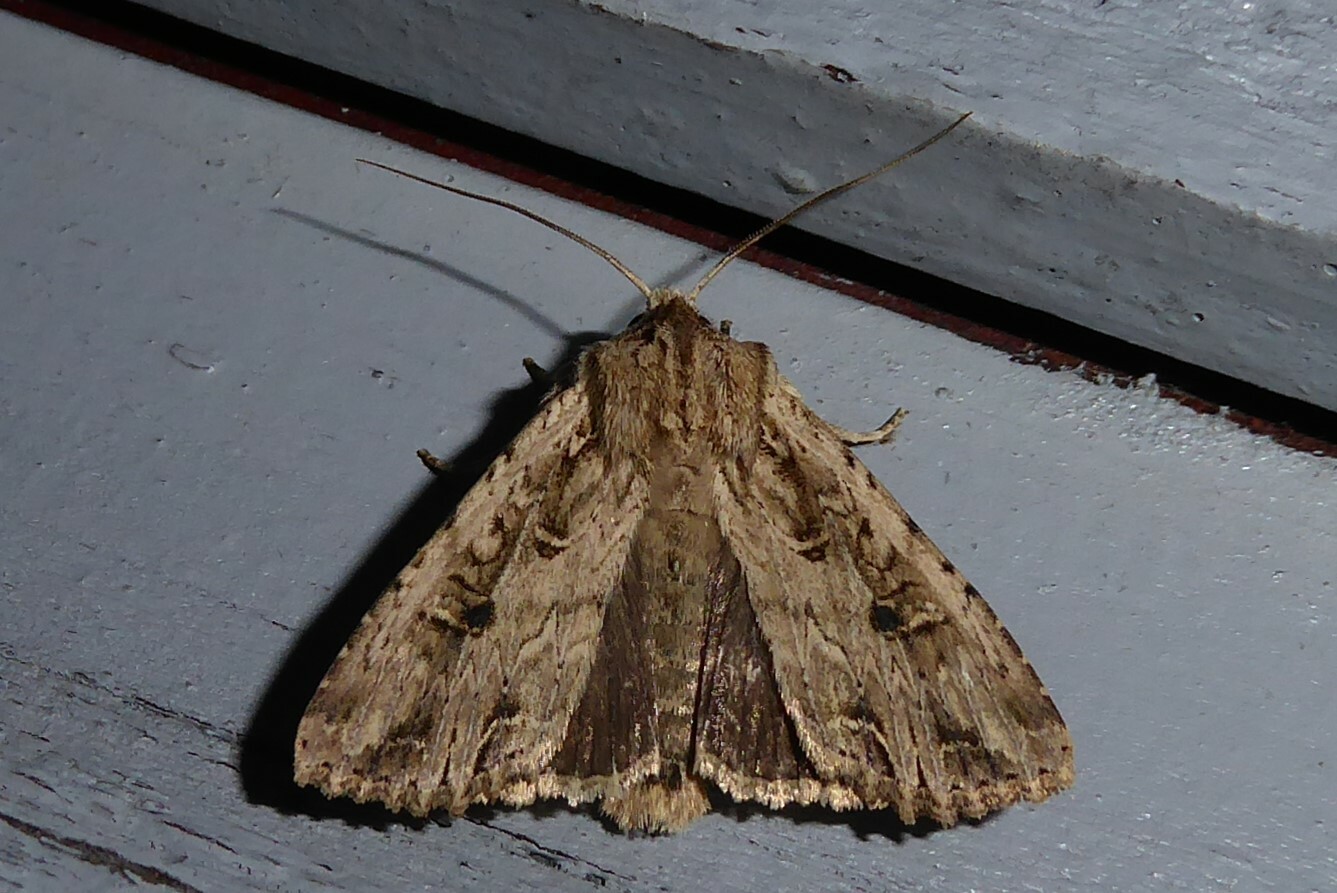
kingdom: Animalia
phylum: Arthropoda
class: Insecta
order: Lepidoptera
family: Noctuidae
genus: Ichneutica
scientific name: Ichneutica lignana
